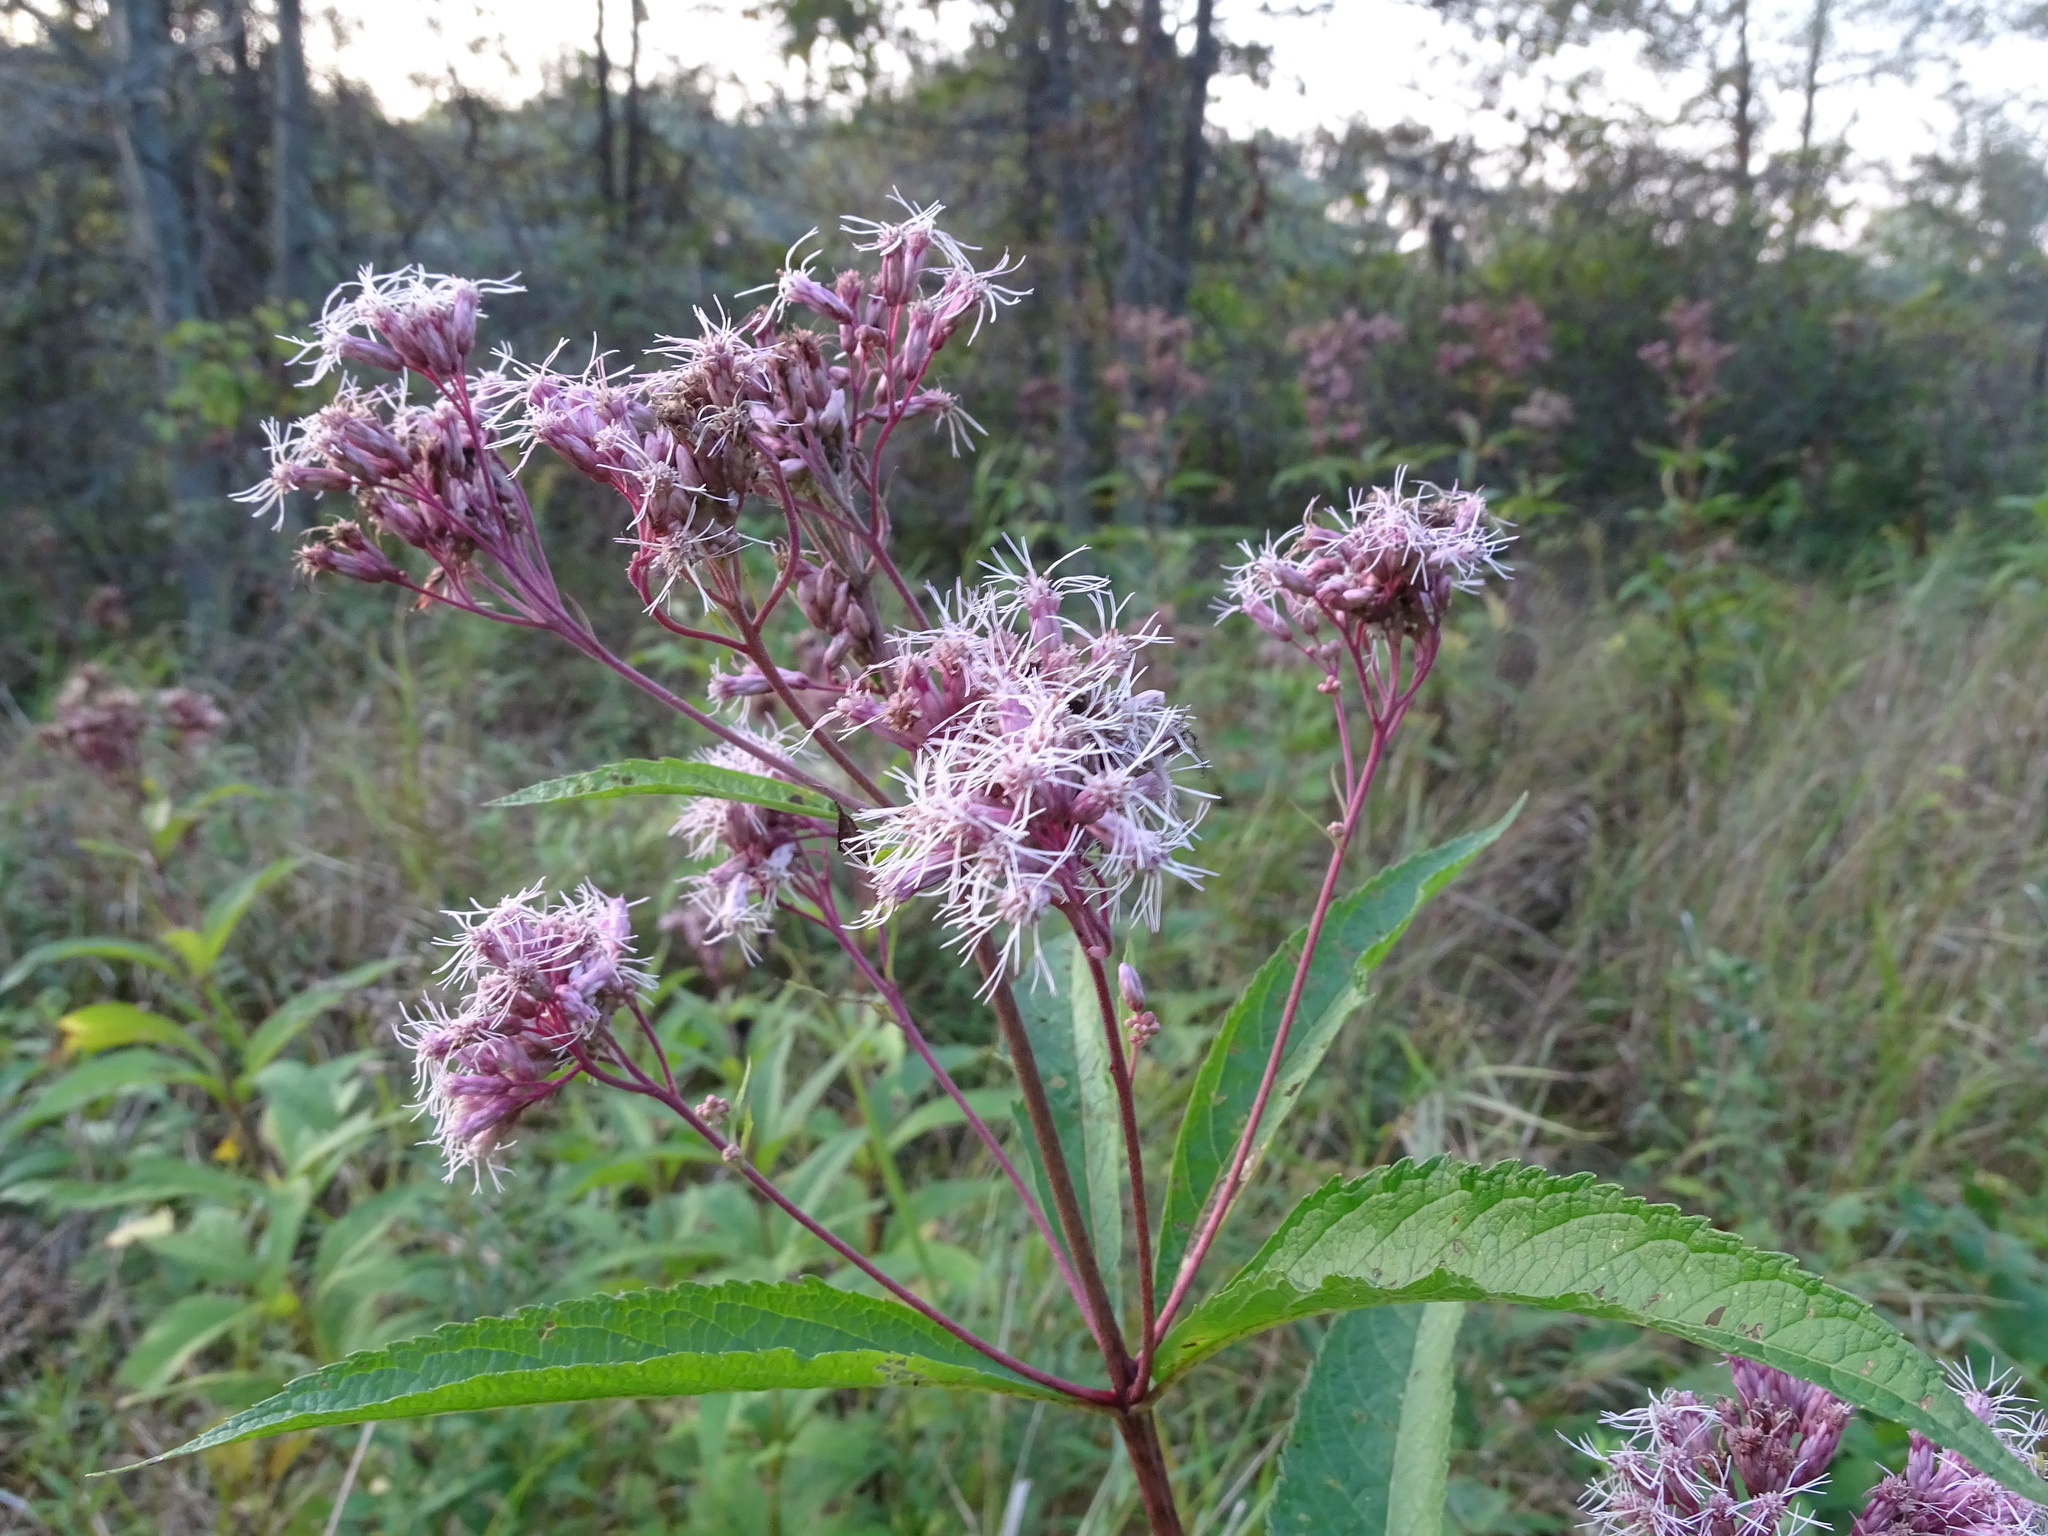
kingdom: Plantae
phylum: Tracheophyta
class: Magnoliopsida
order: Asterales
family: Asteraceae
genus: Eutrochium
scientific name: Eutrochium maculatum
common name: Spotted joe pye weed
